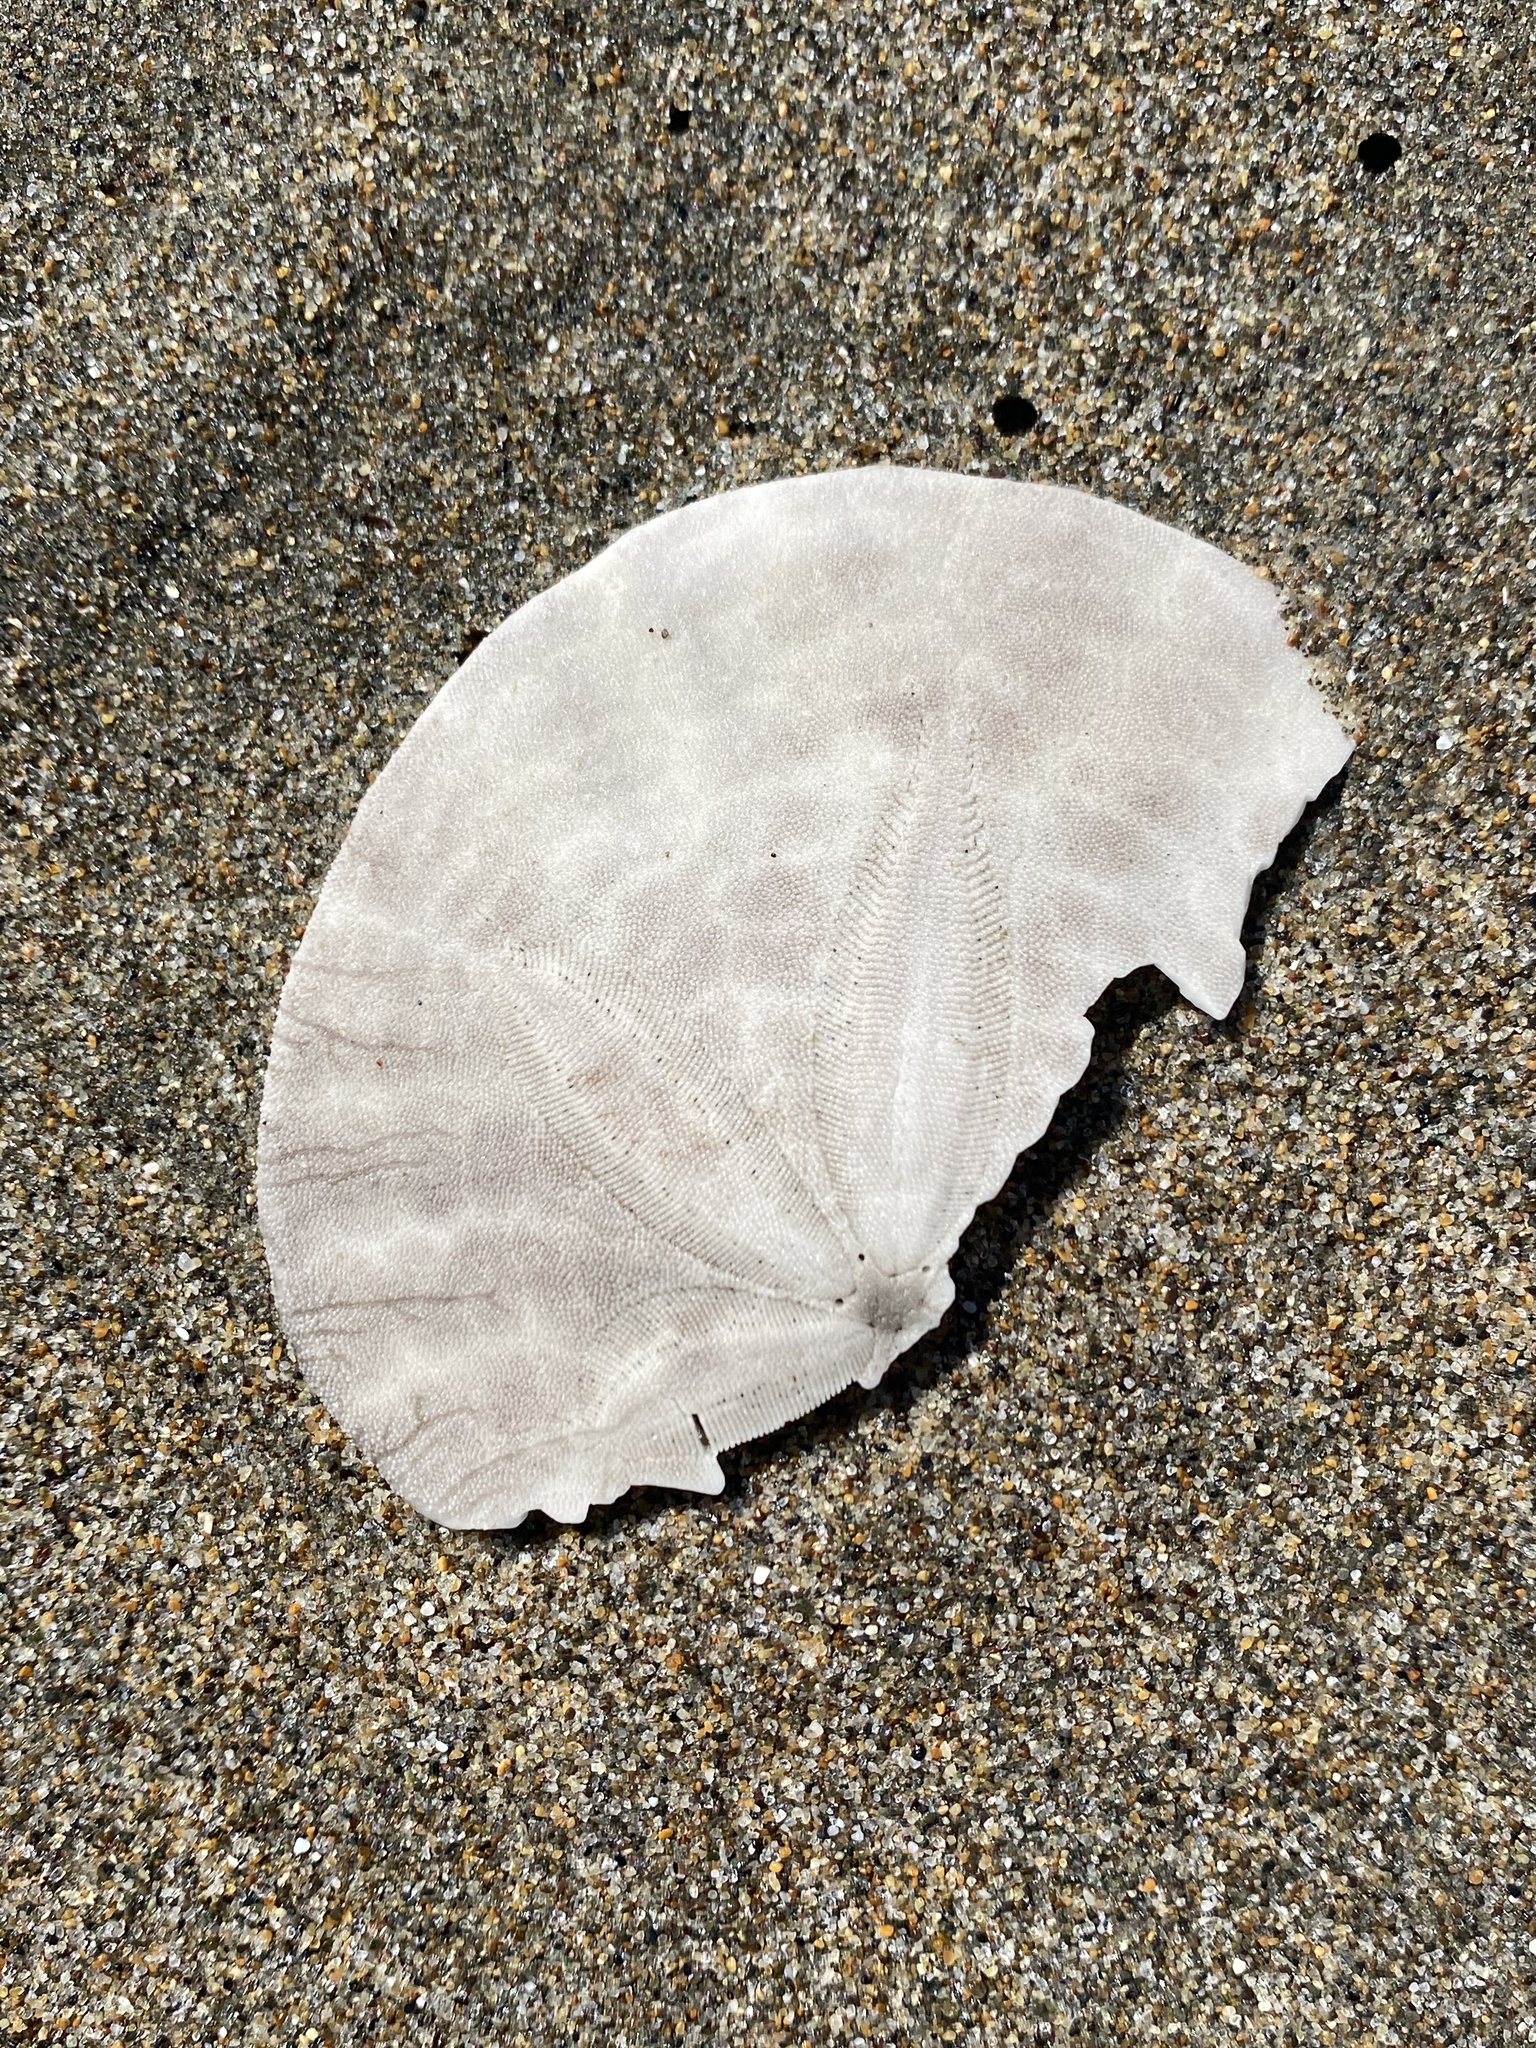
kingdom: Animalia
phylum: Echinodermata
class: Echinoidea
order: Echinolampadacea
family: Dendrasteridae
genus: Dendraster
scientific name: Dendraster excentricus
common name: Eccentric sand dollar sea urchin
